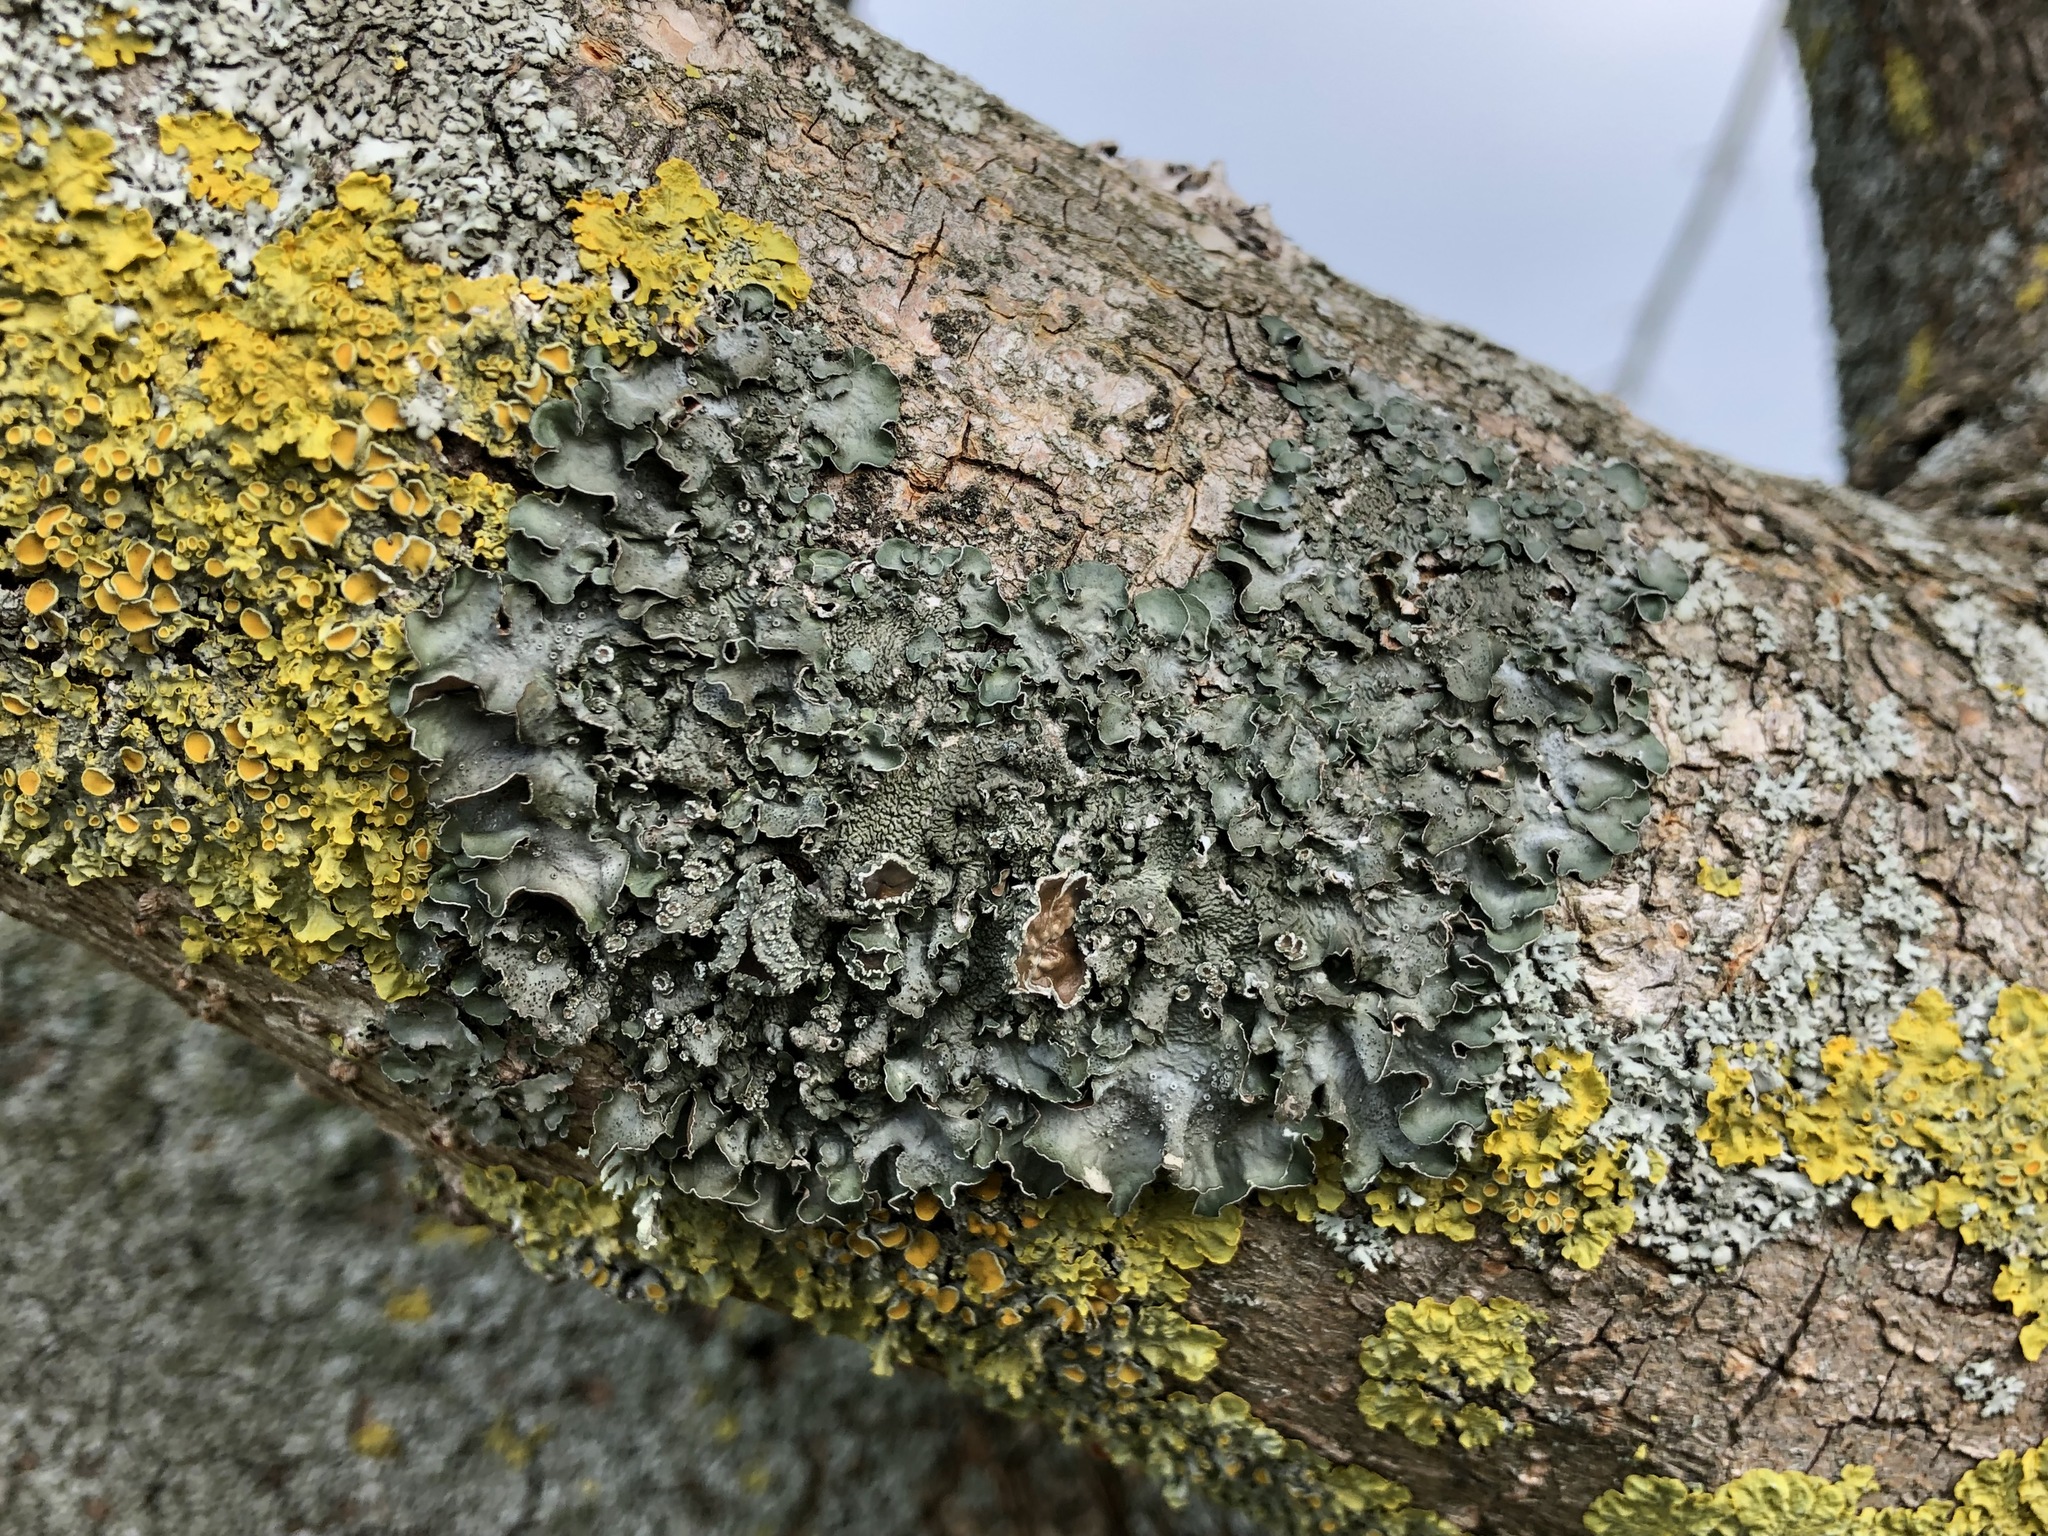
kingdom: Fungi
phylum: Ascomycota
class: Lecanoromycetes
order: Lecanorales
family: Parmeliaceae
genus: Pleurosticta
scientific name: Pleurosticta acetabulum
